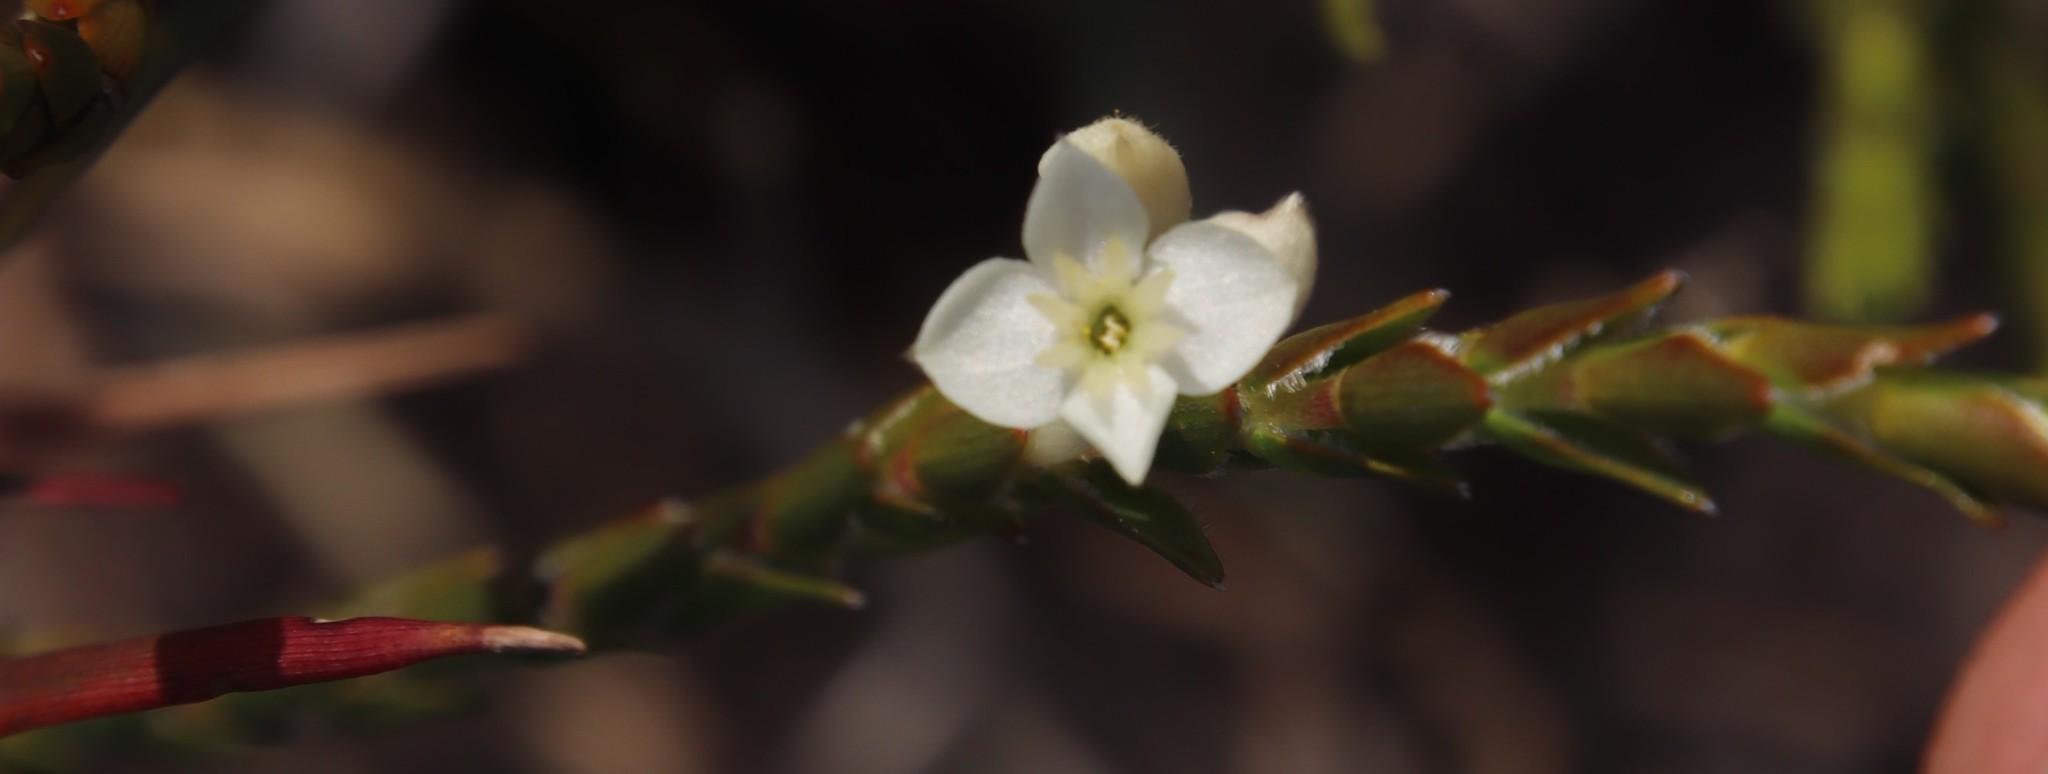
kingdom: Plantae
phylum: Tracheophyta
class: Magnoliopsida
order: Malvales
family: Thymelaeaceae
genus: Struthiola
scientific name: Struthiola ciliata
